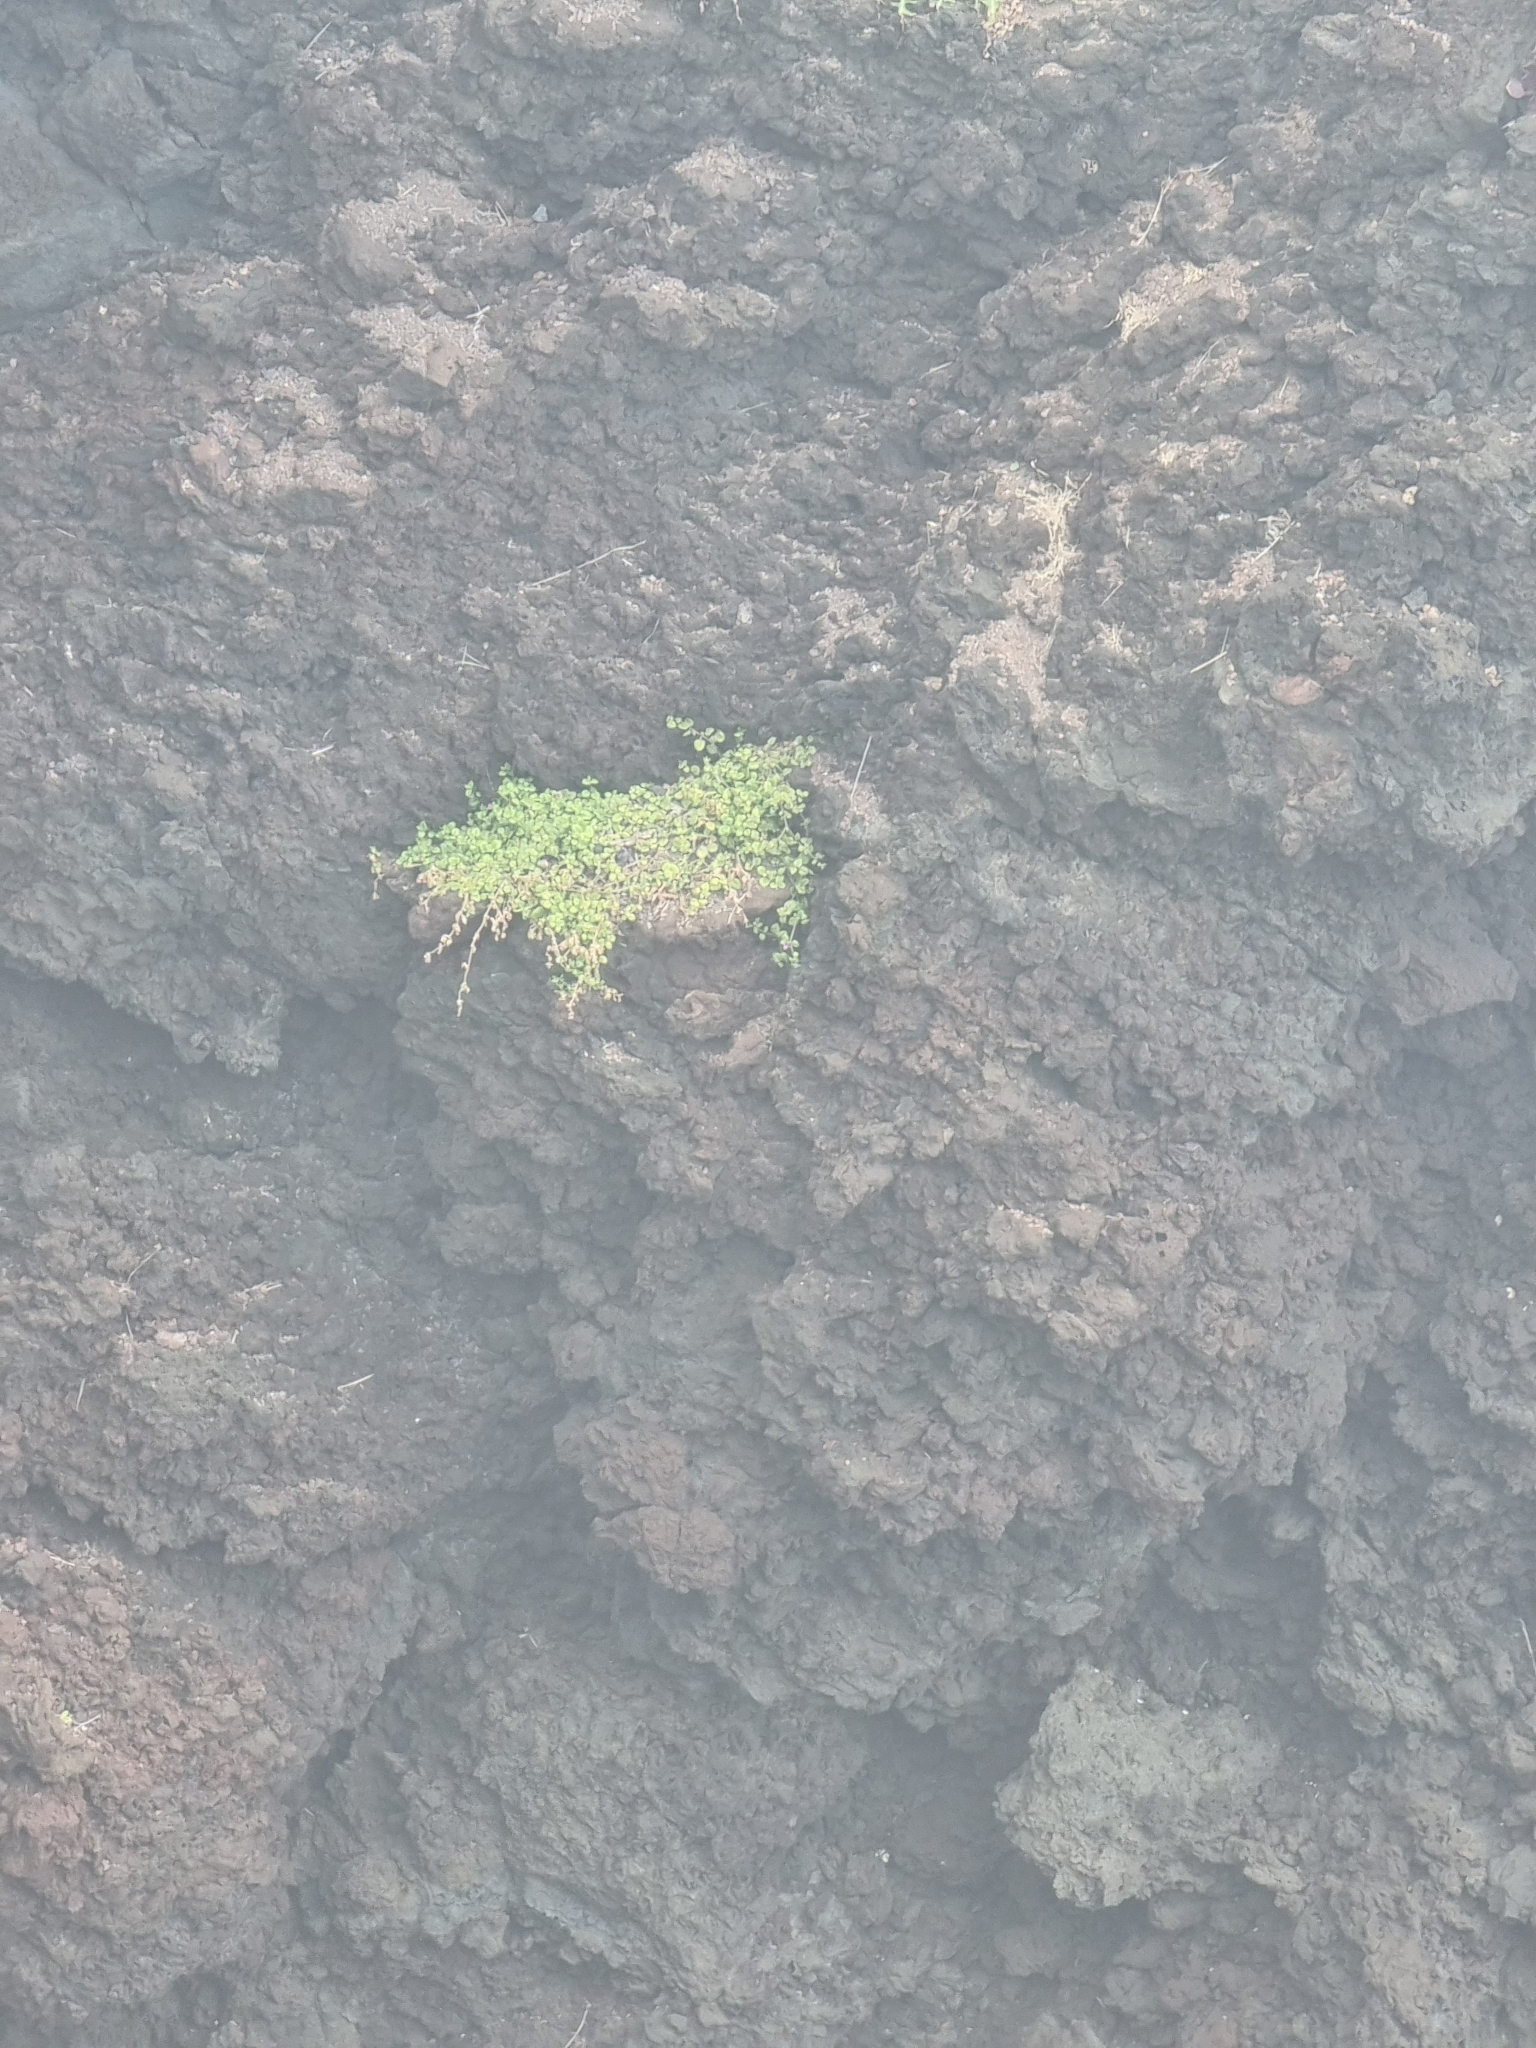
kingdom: Plantae
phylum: Tracheophyta
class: Magnoliopsida
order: Caryophyllales
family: Aizoaceae
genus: Mesembryanthemum
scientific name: Mesembryanthemum cordifolium
